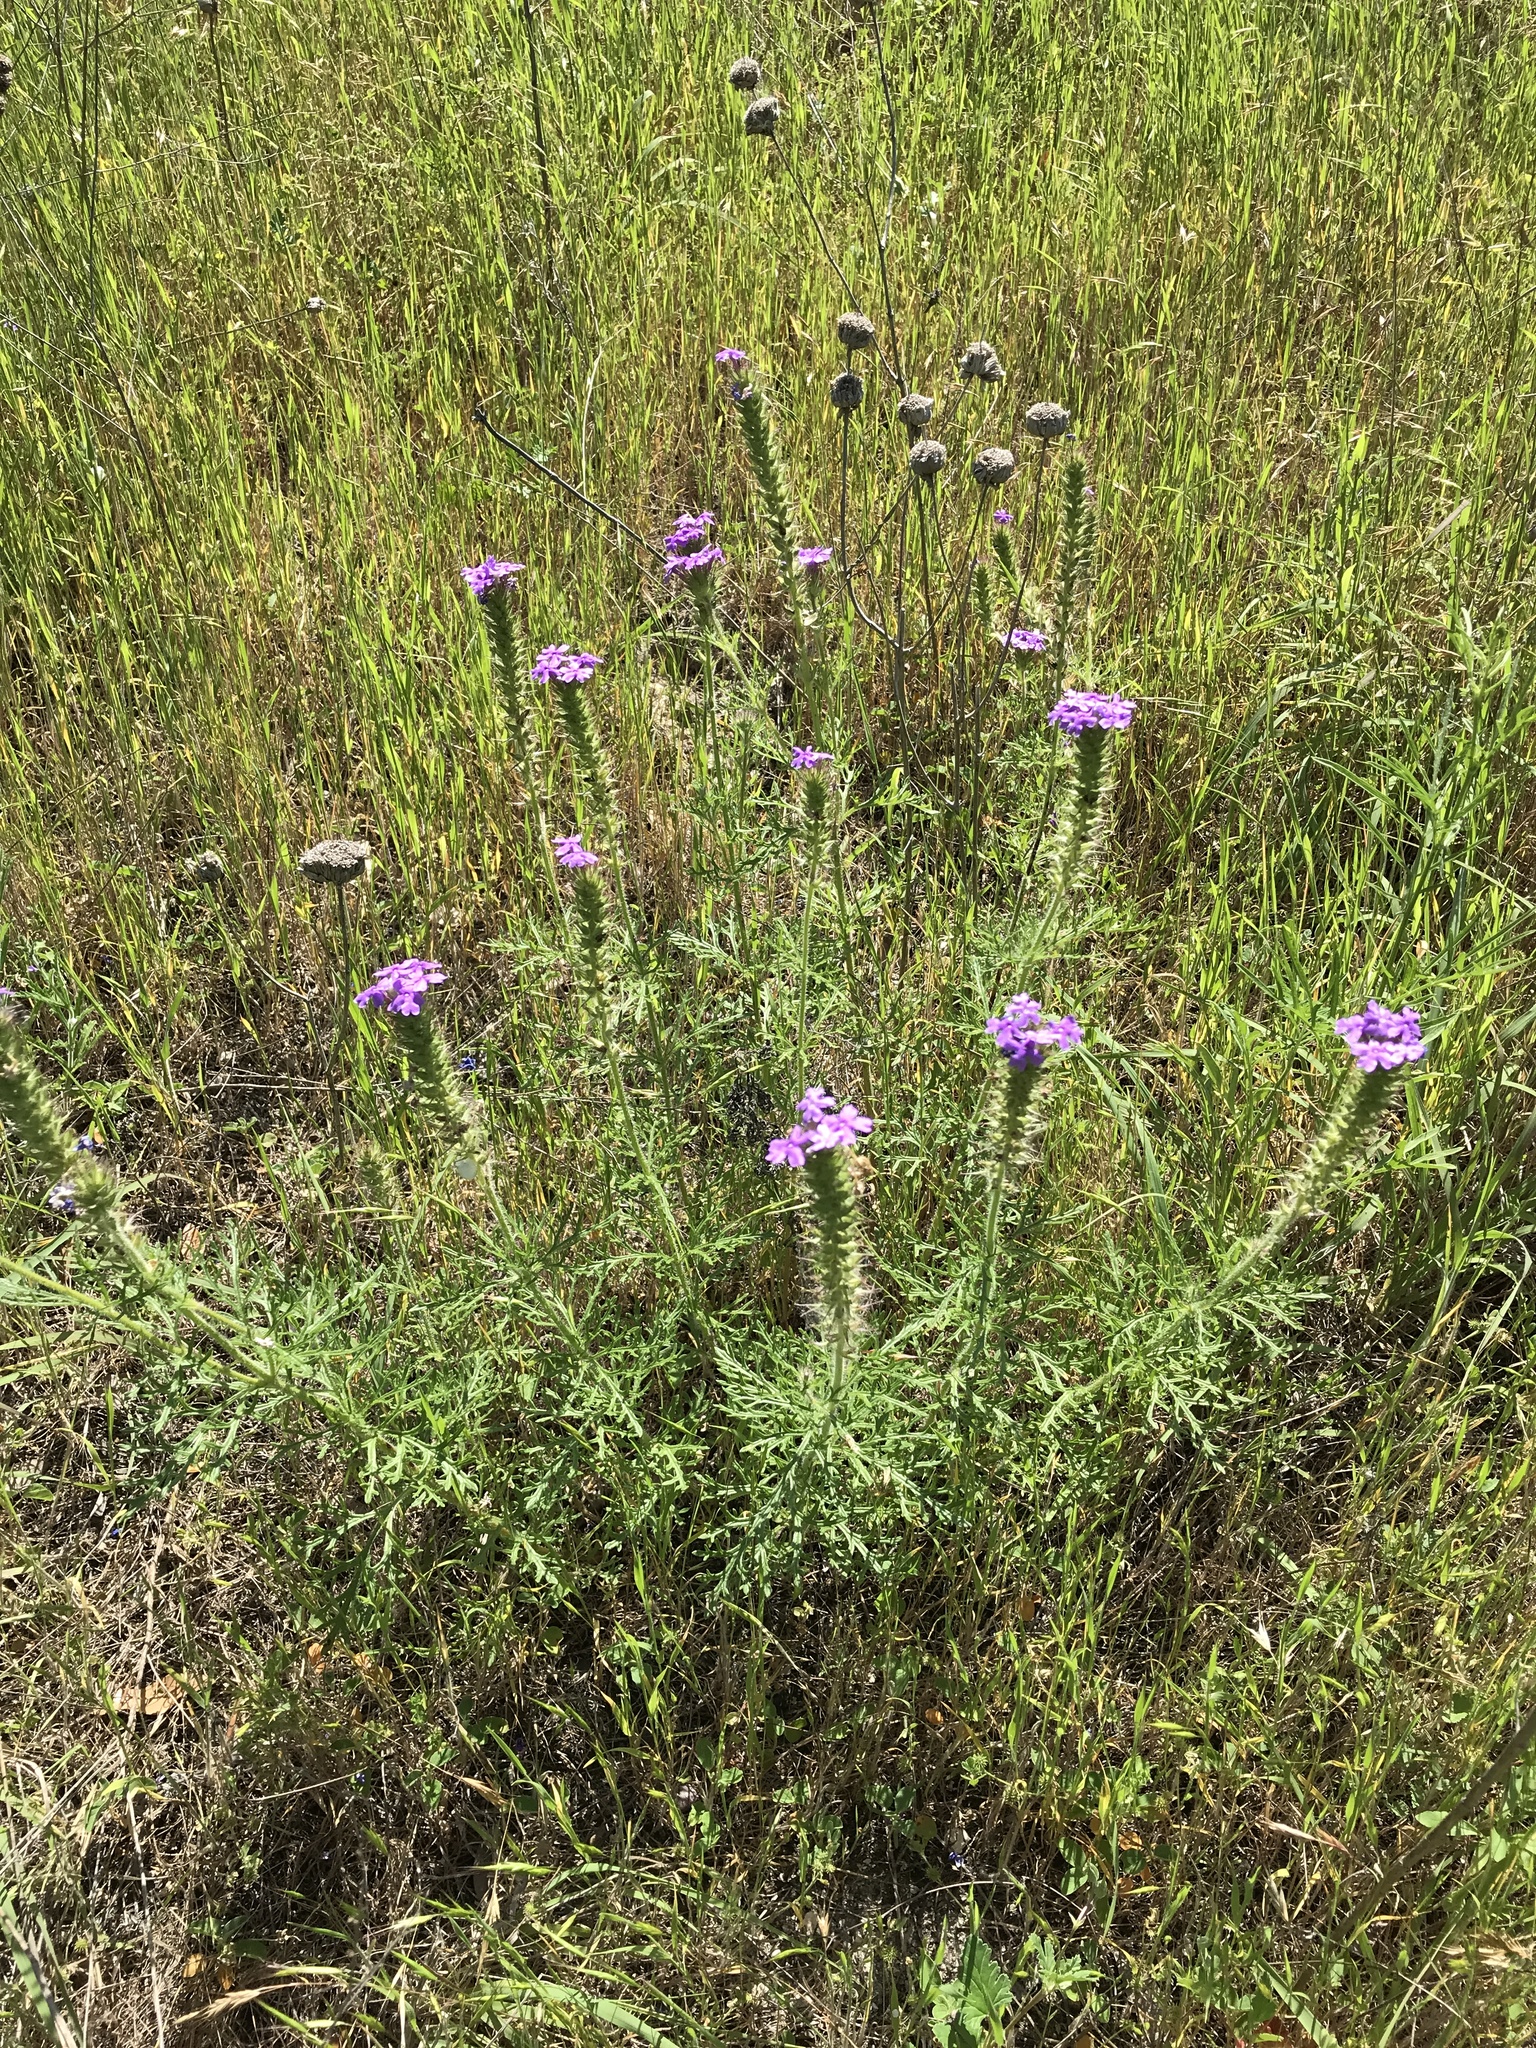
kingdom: Plantae
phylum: Tracheophyta
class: Magnoliopsida
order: Lamiales
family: Verbenaceae
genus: Verbena
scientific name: Verbena bipinnatifida
